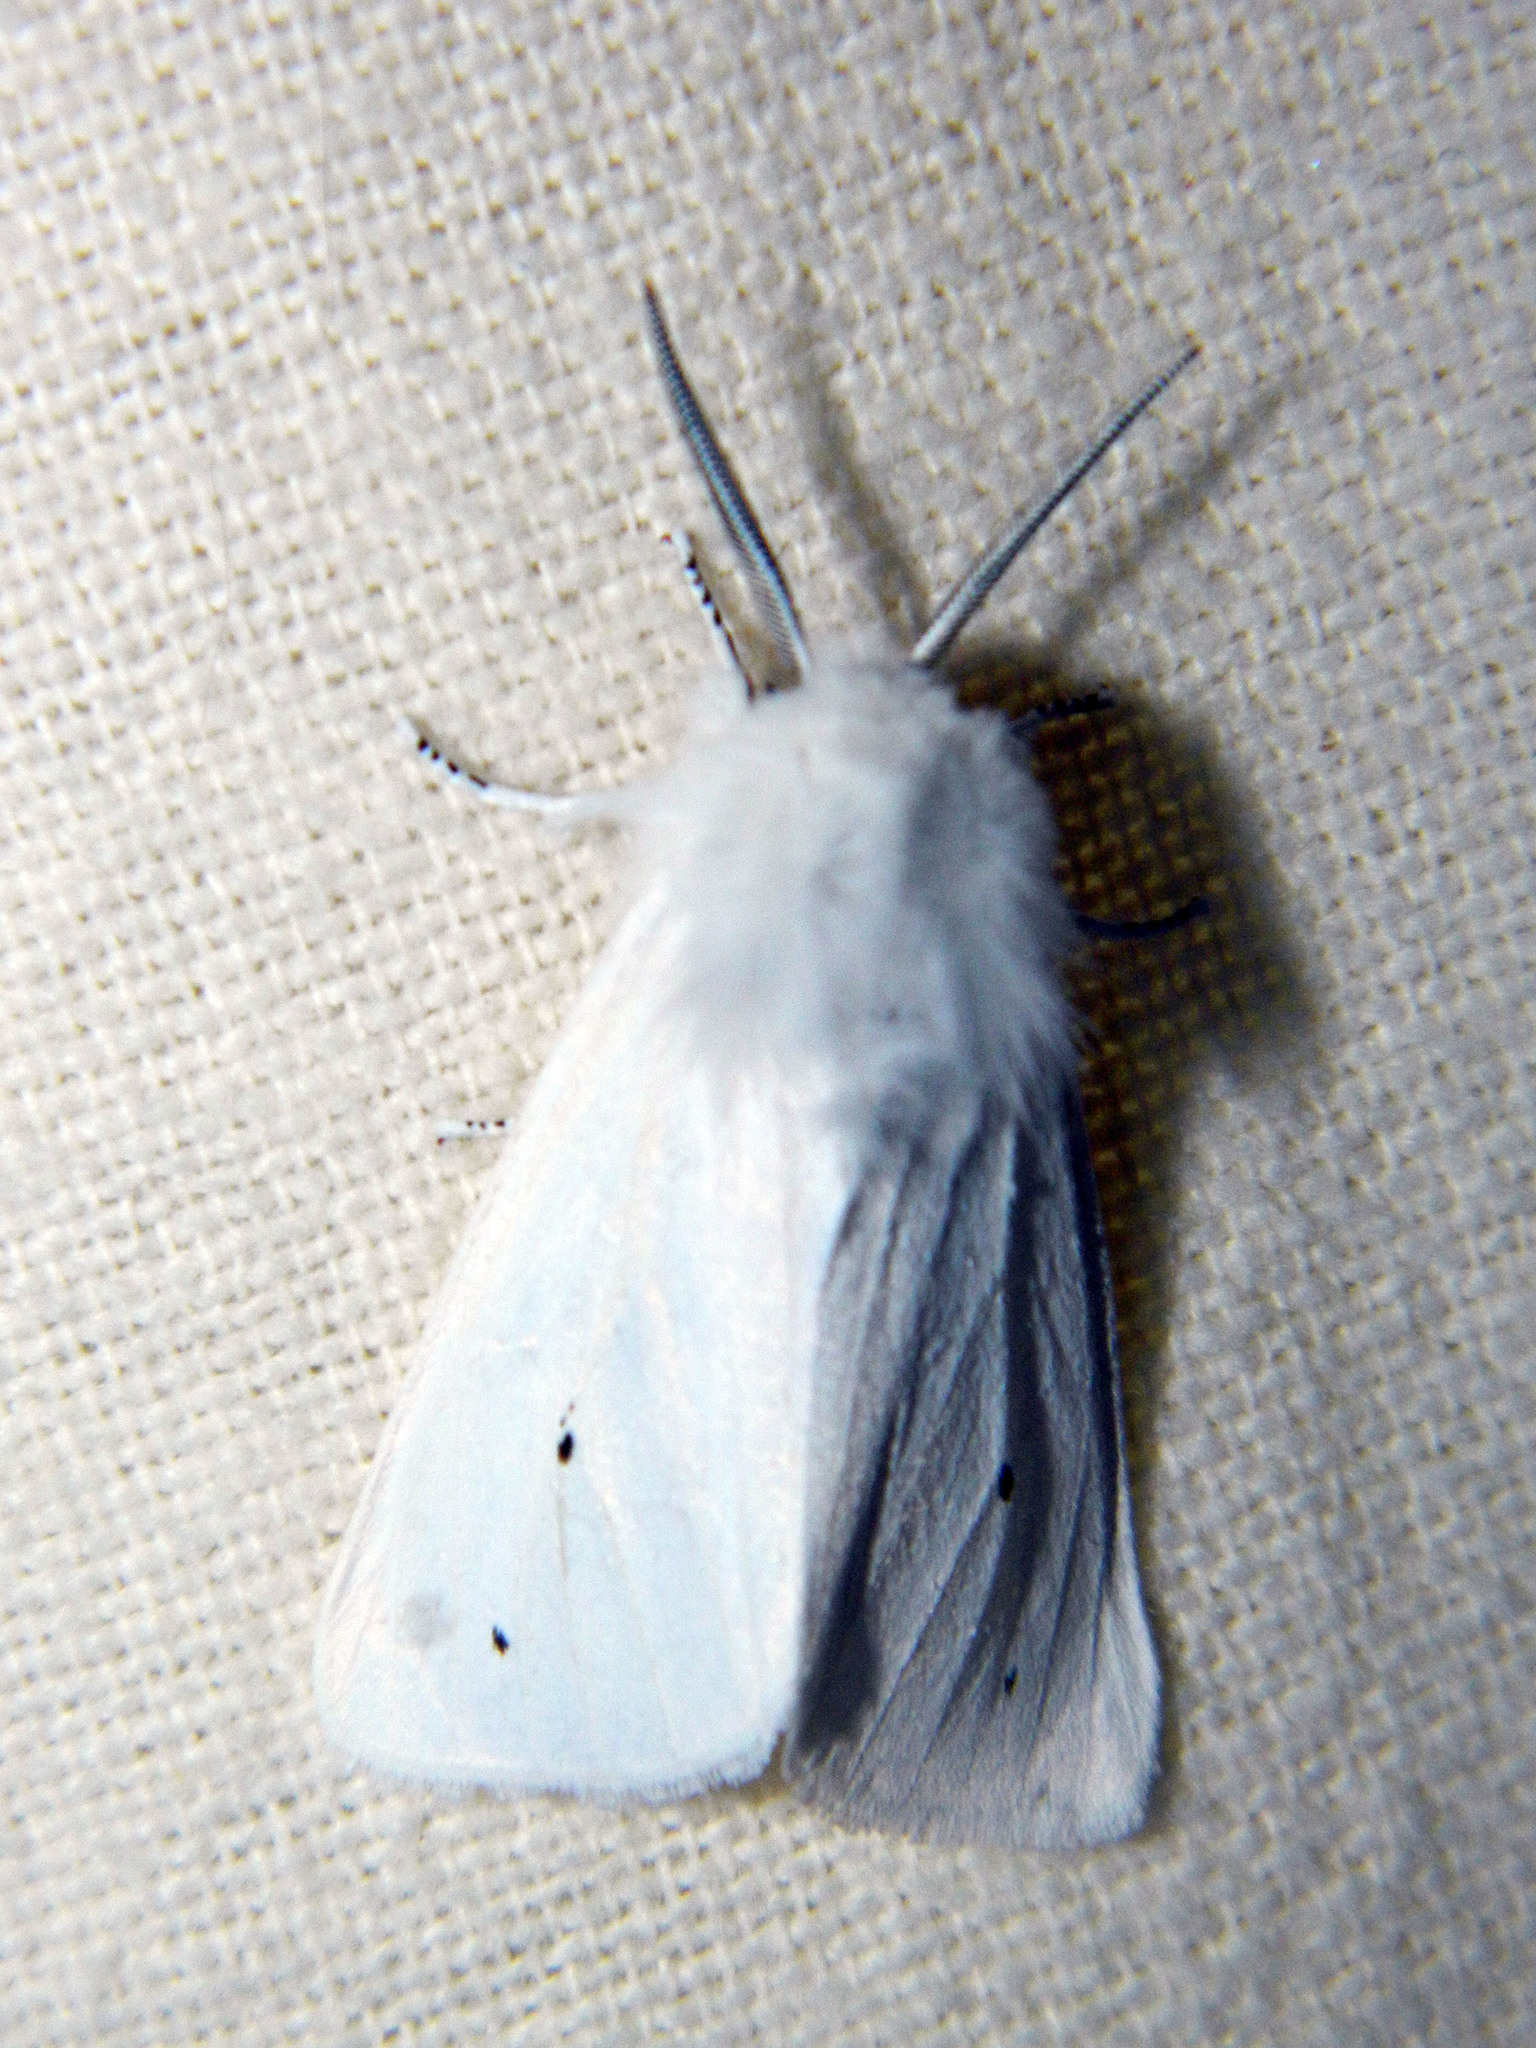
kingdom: Animalia
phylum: Arthropoda
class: Insecta
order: Lepidoptera
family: Erebidae
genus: Spilosoma
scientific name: Spilosoma virginica
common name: Virginia tiger moth
